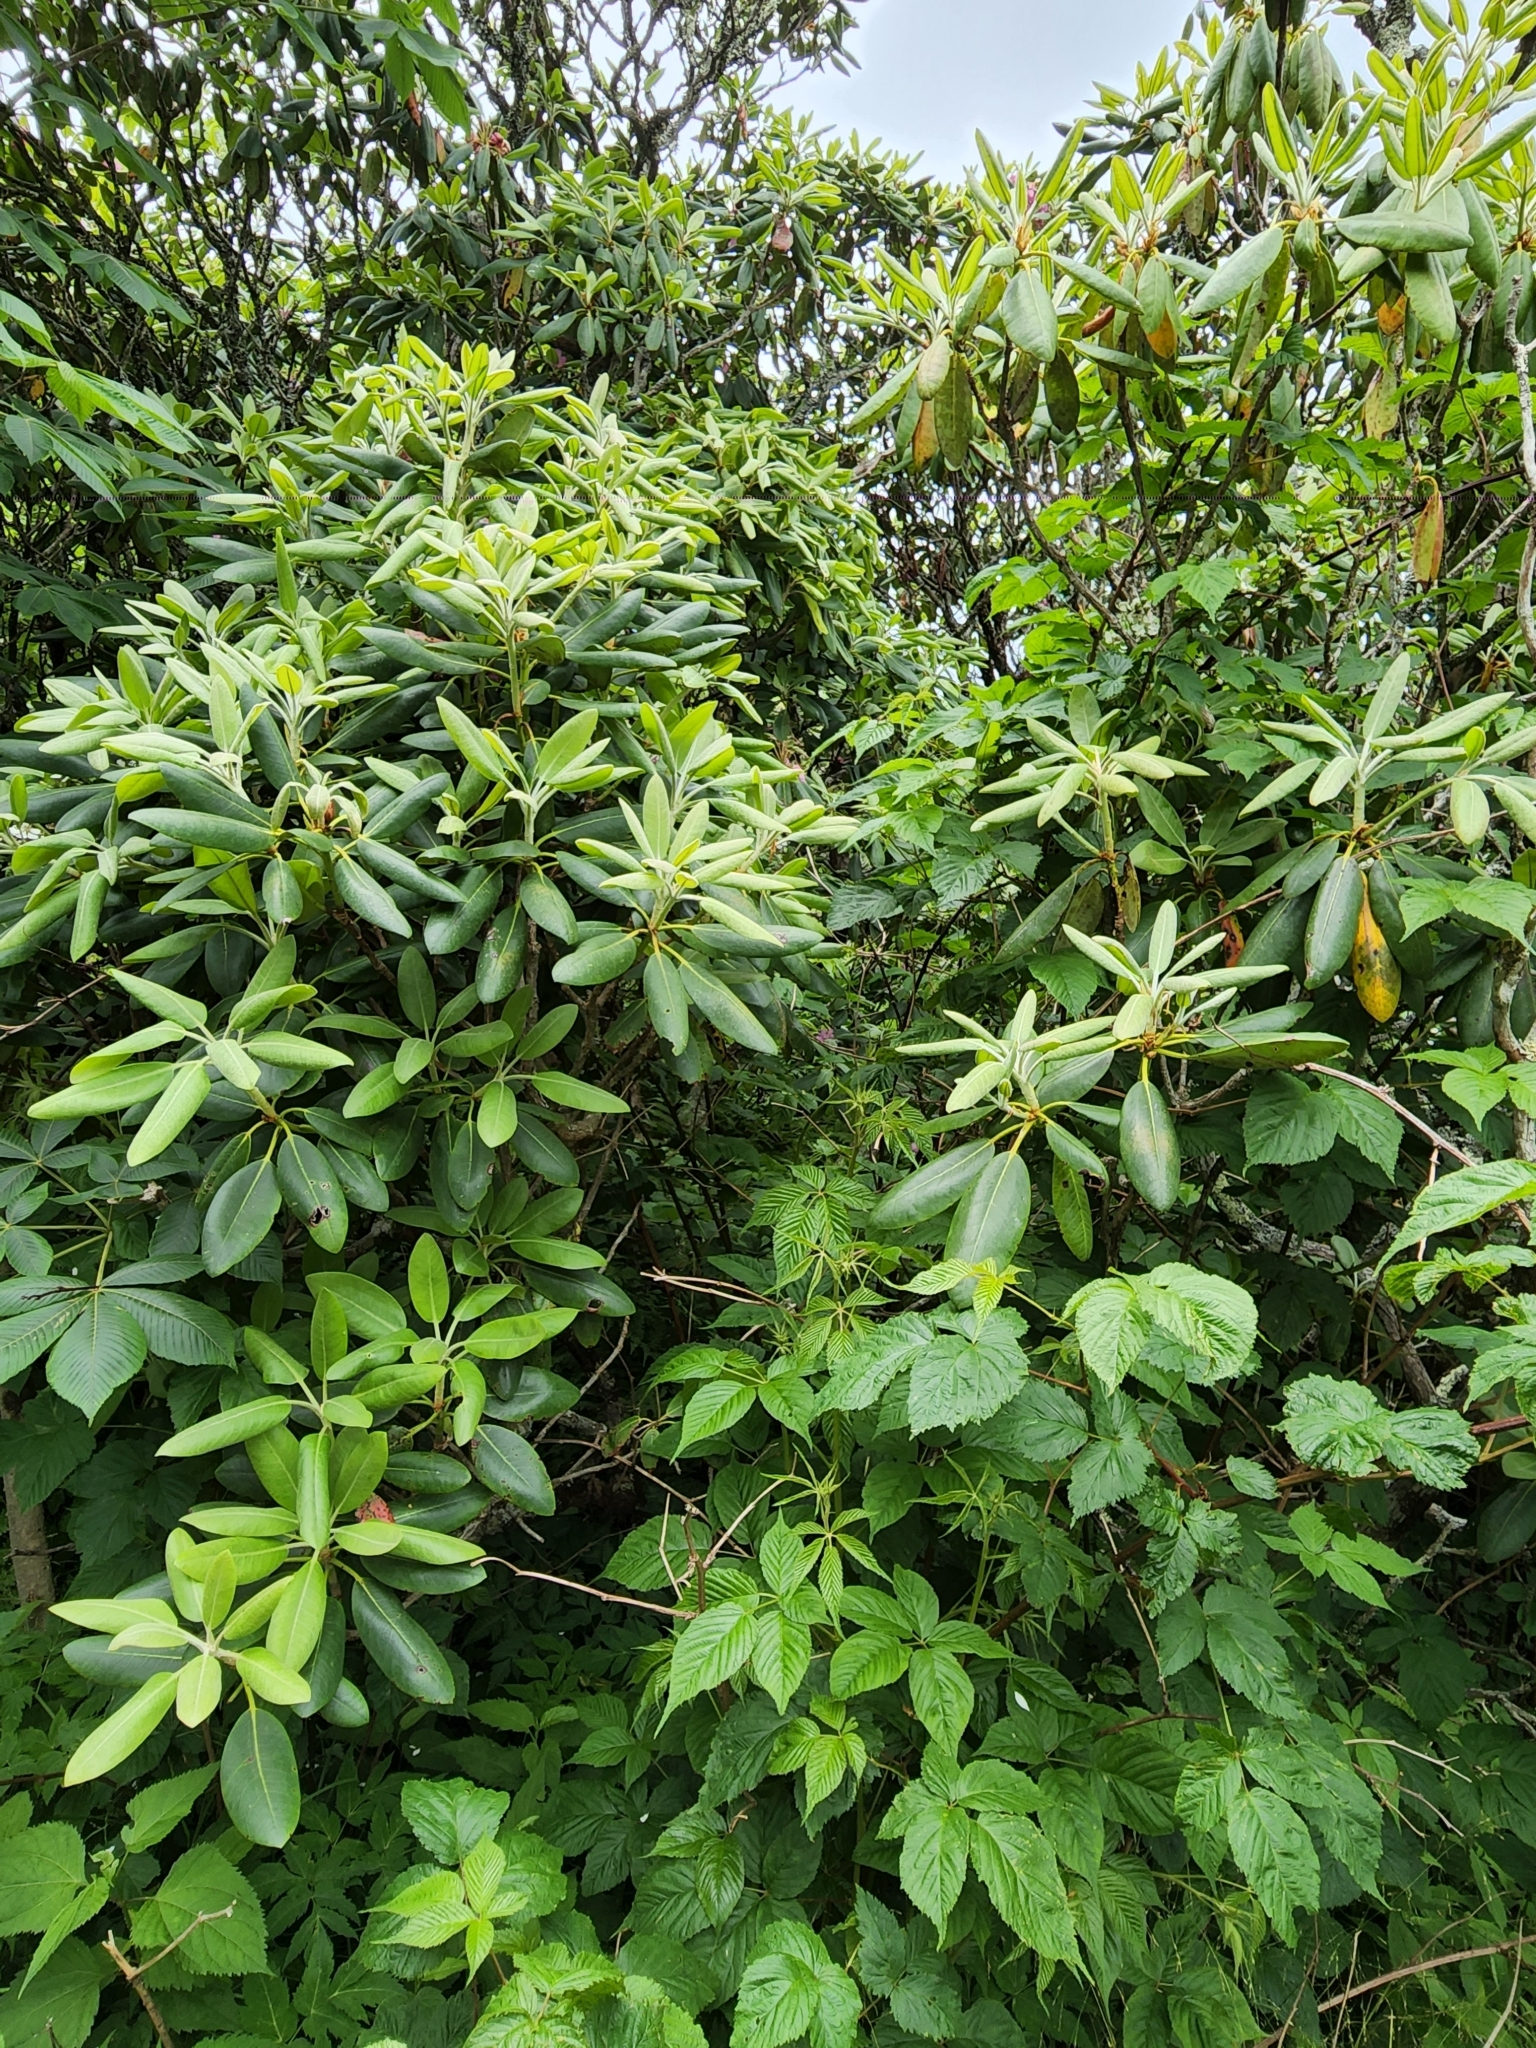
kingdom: Plantae
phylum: Tracheophyta
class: Magnoliopsida
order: Ericales
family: Ericaceae
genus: Rhododendron
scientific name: Rhododendron catawbiense
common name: Catawba rhododendron
